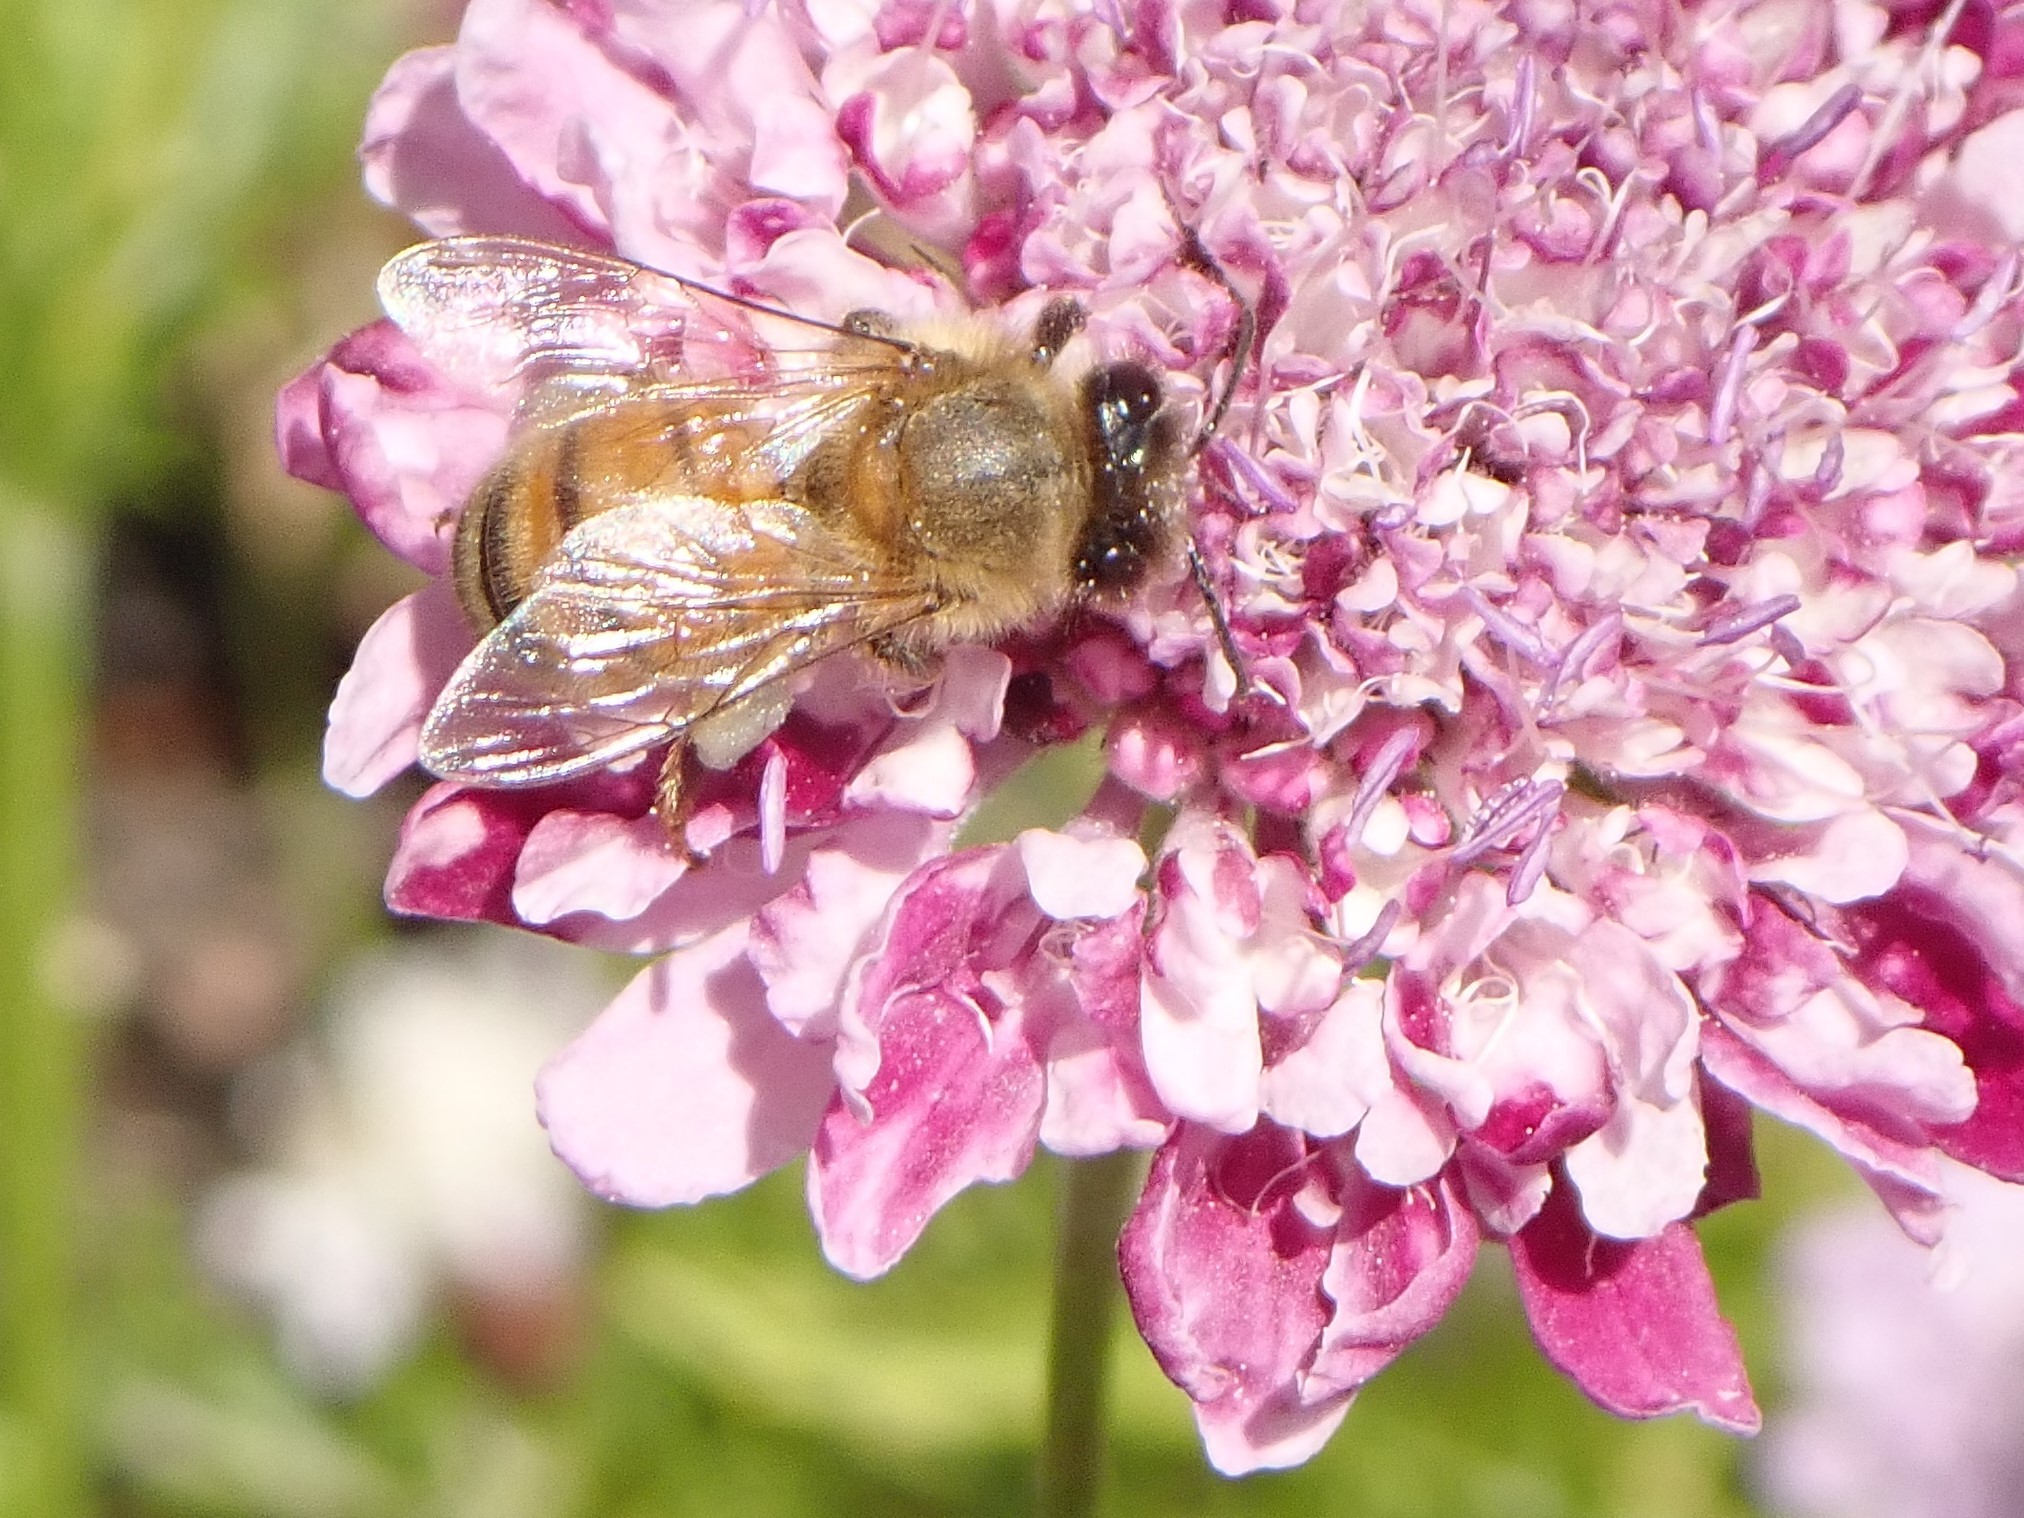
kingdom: Animalia
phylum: Arthropoda
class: Insecta
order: Hymenoptera
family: Apidae
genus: Apis
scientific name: Apis mellifera
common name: Honey bee
